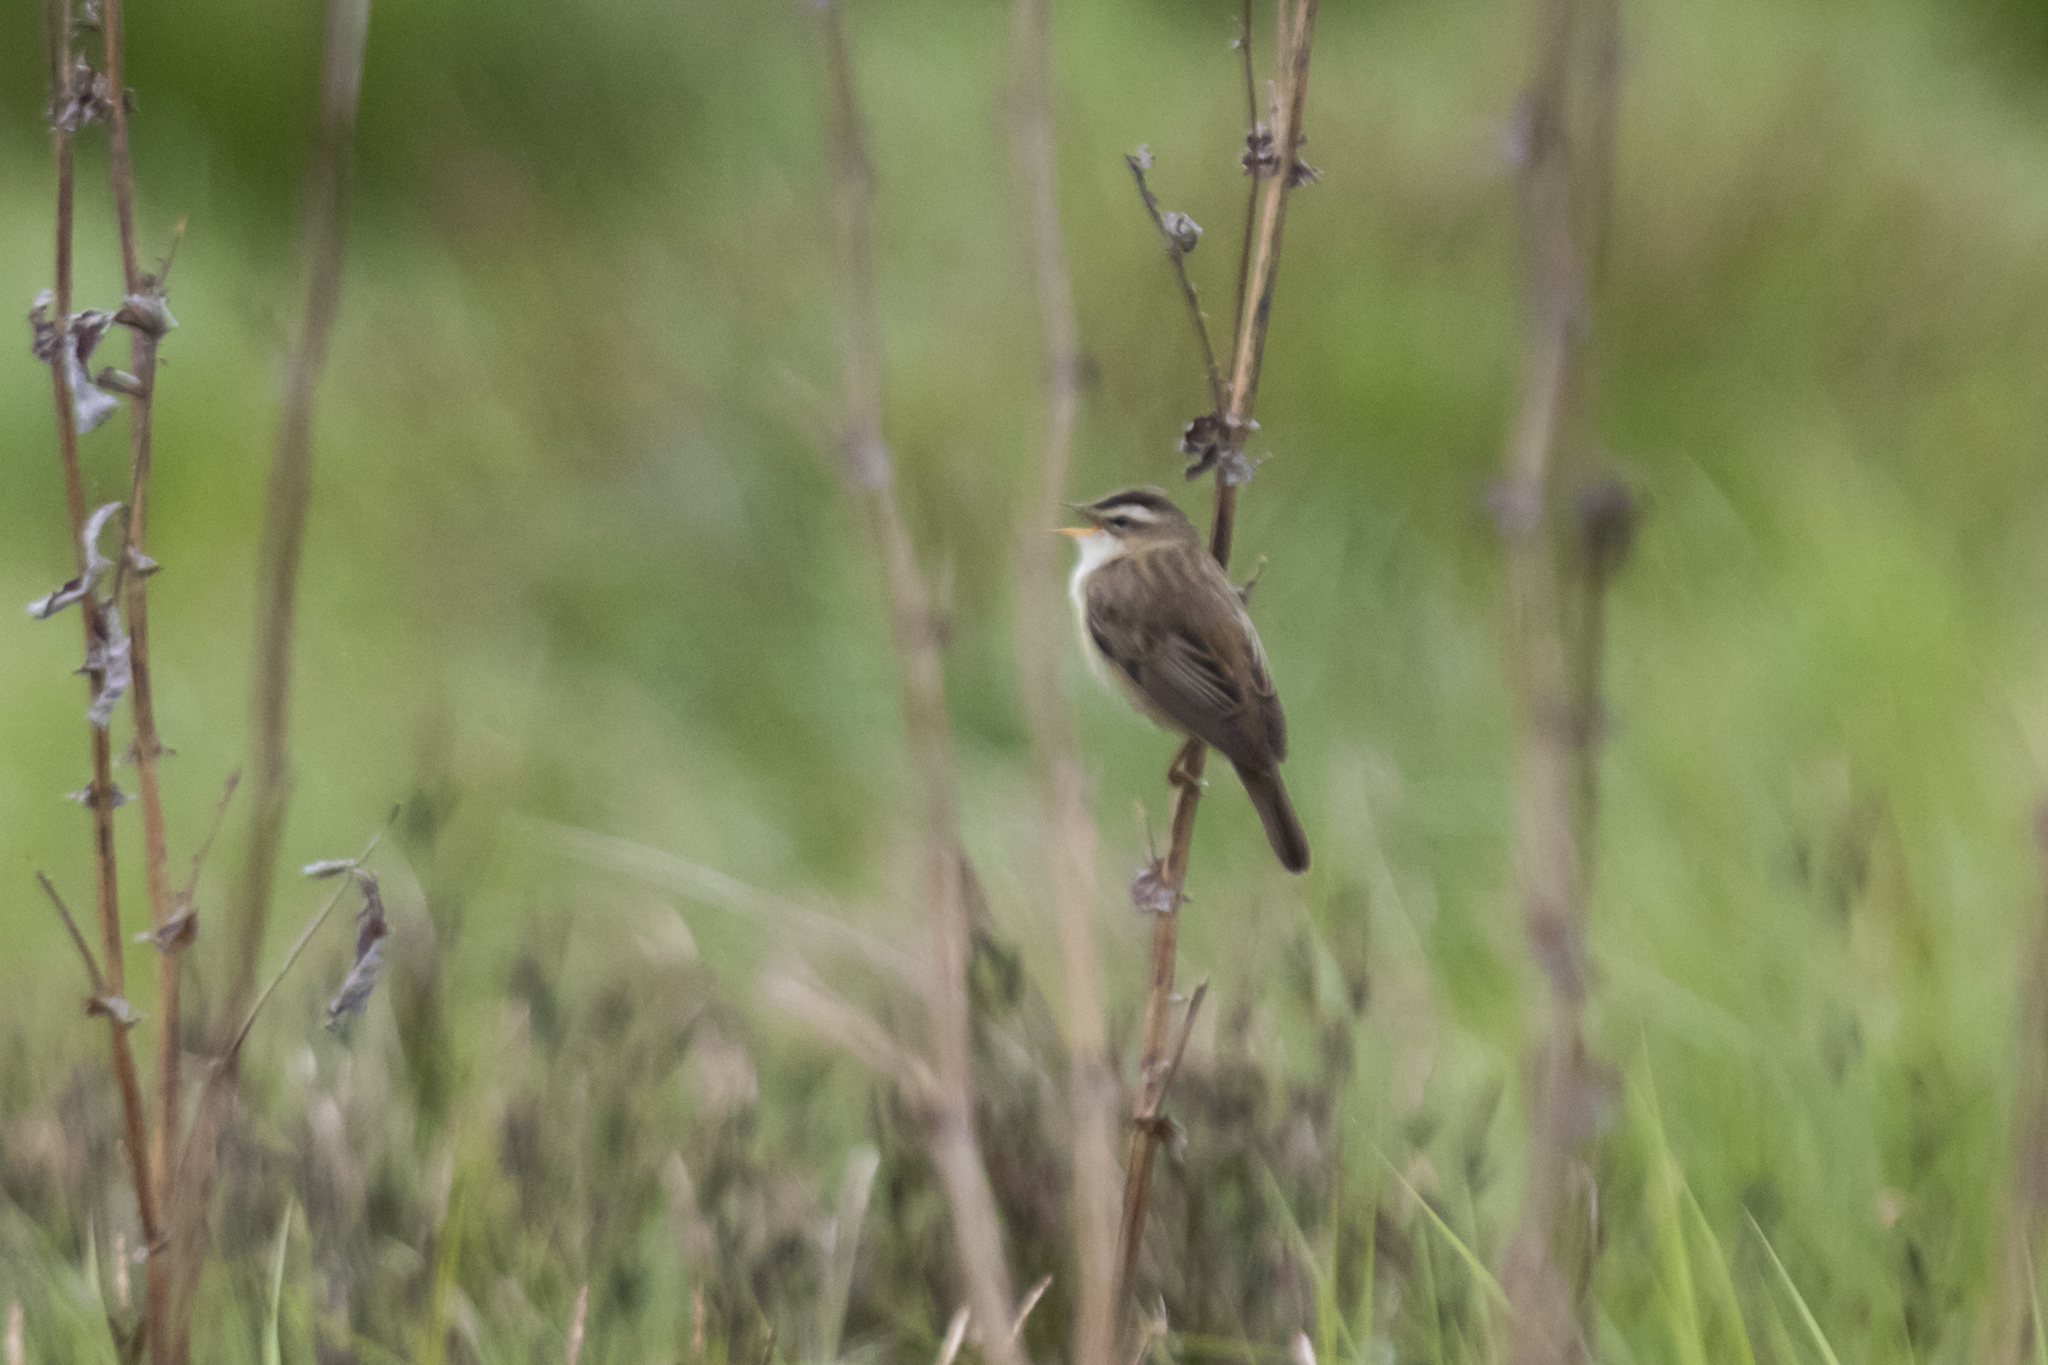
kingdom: Animalia
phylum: Chordata
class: Aves
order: Passeriformes
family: Acrocephalidae
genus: Acrocephalus
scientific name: Acrocephalus schoenobaenus
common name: Sedge warbler
